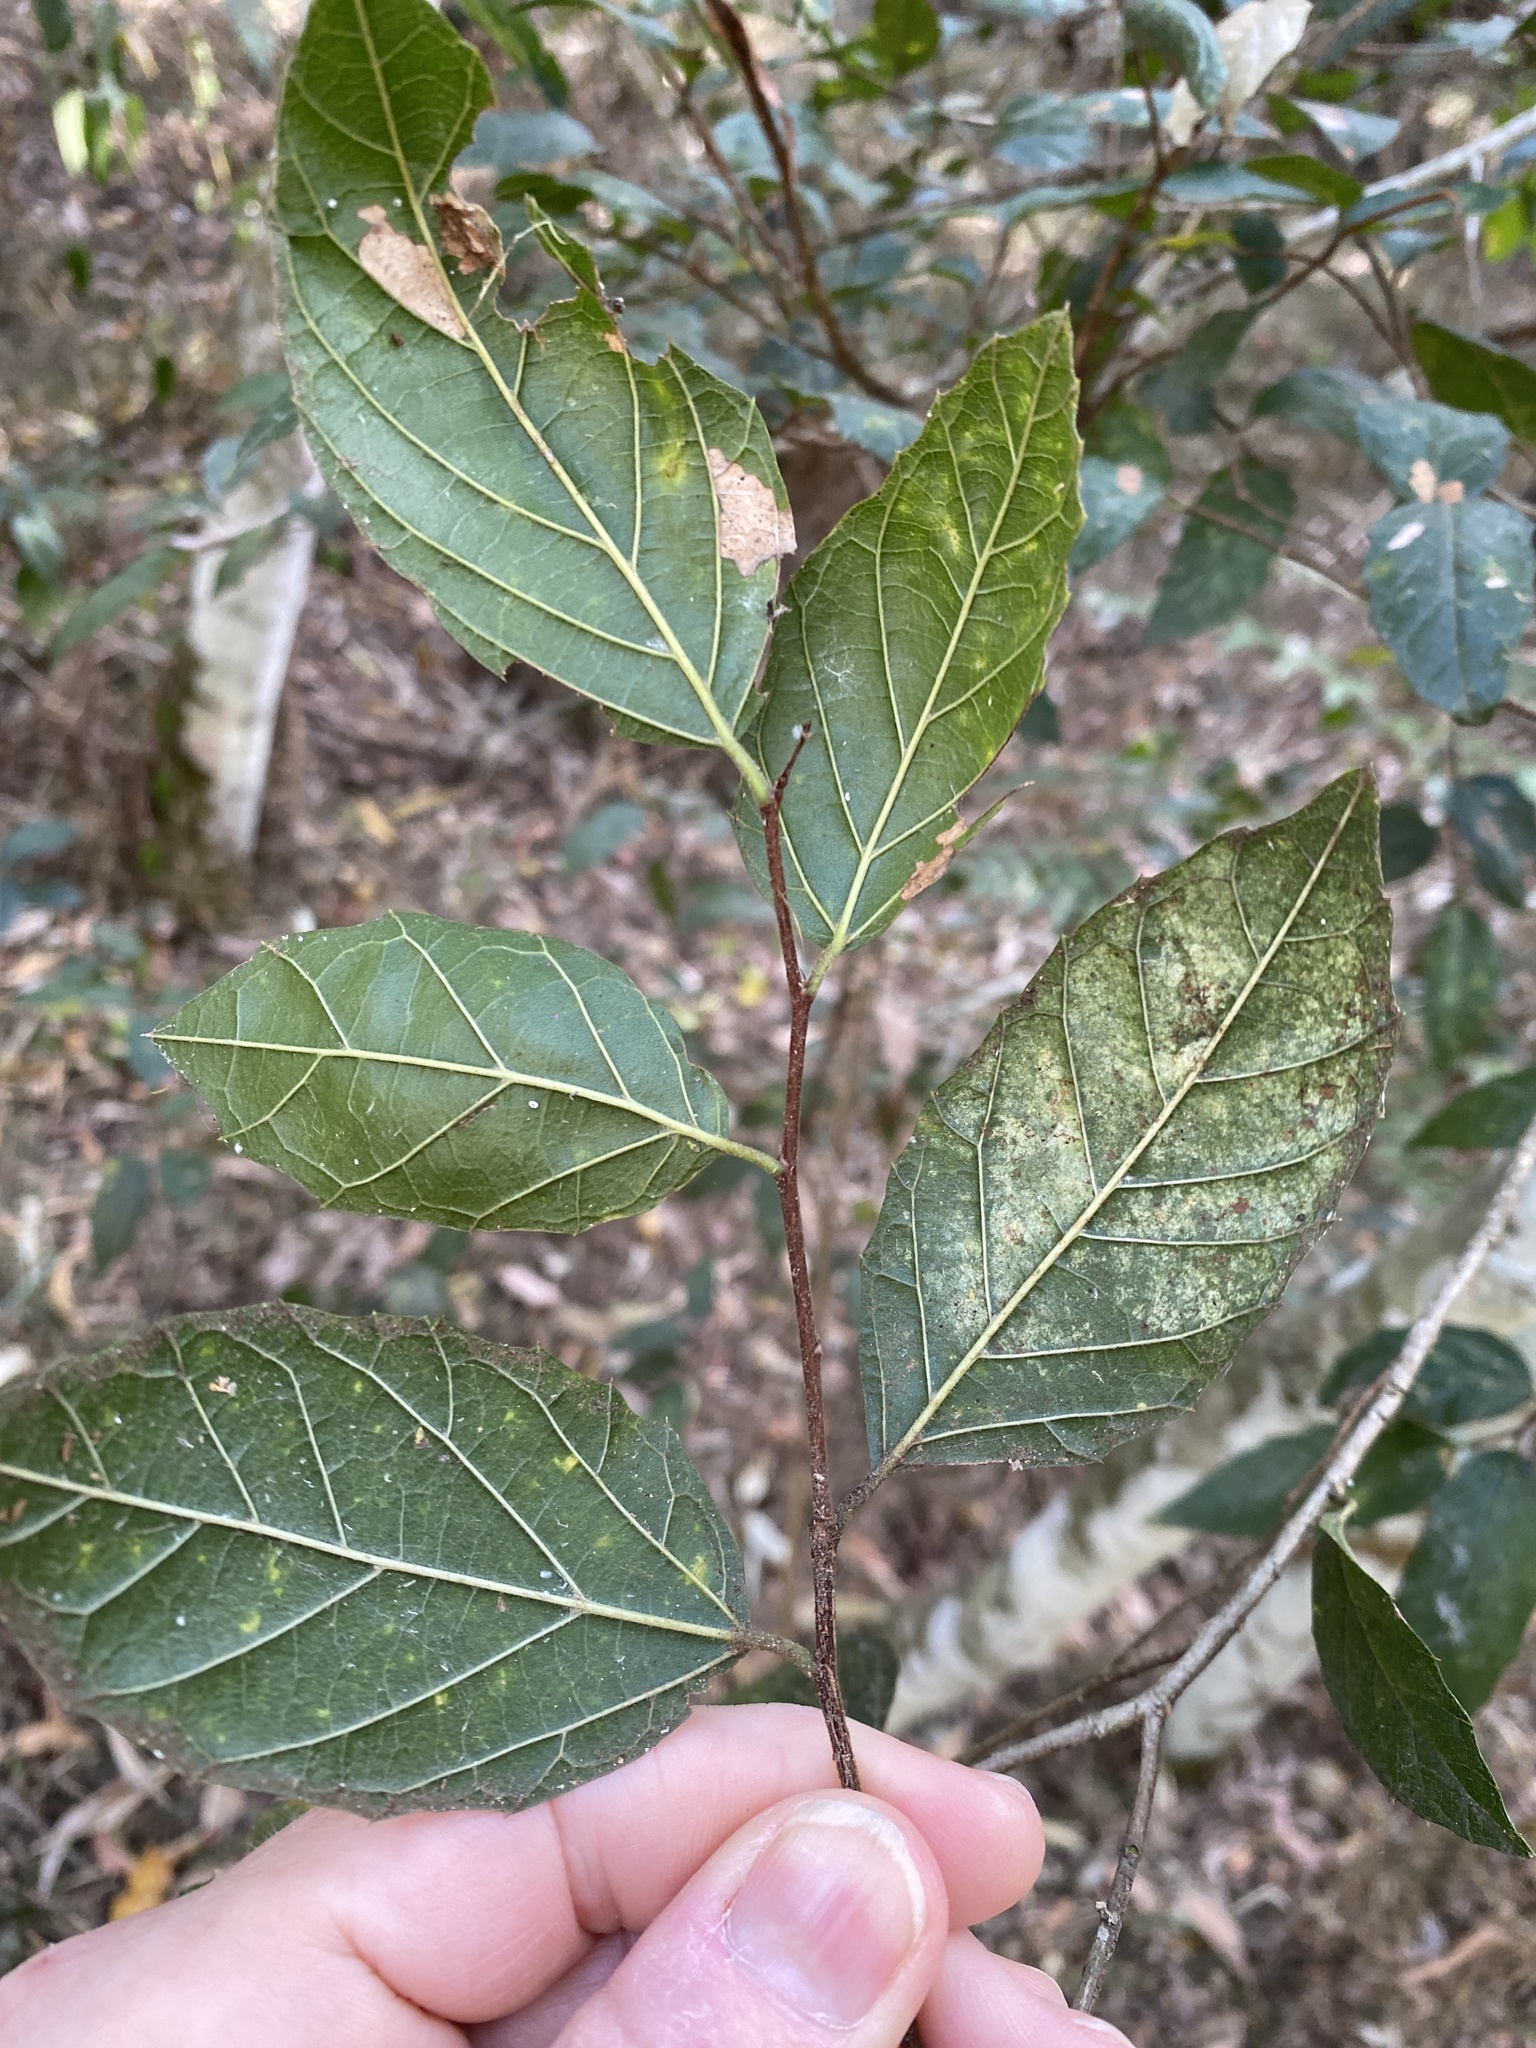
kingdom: Plantae
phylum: Tracheophyta
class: Magnoliopsida
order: Rosales
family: Cannabaceae
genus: Aphananthe
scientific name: Aphananthe philippinensis
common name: Wild holly
